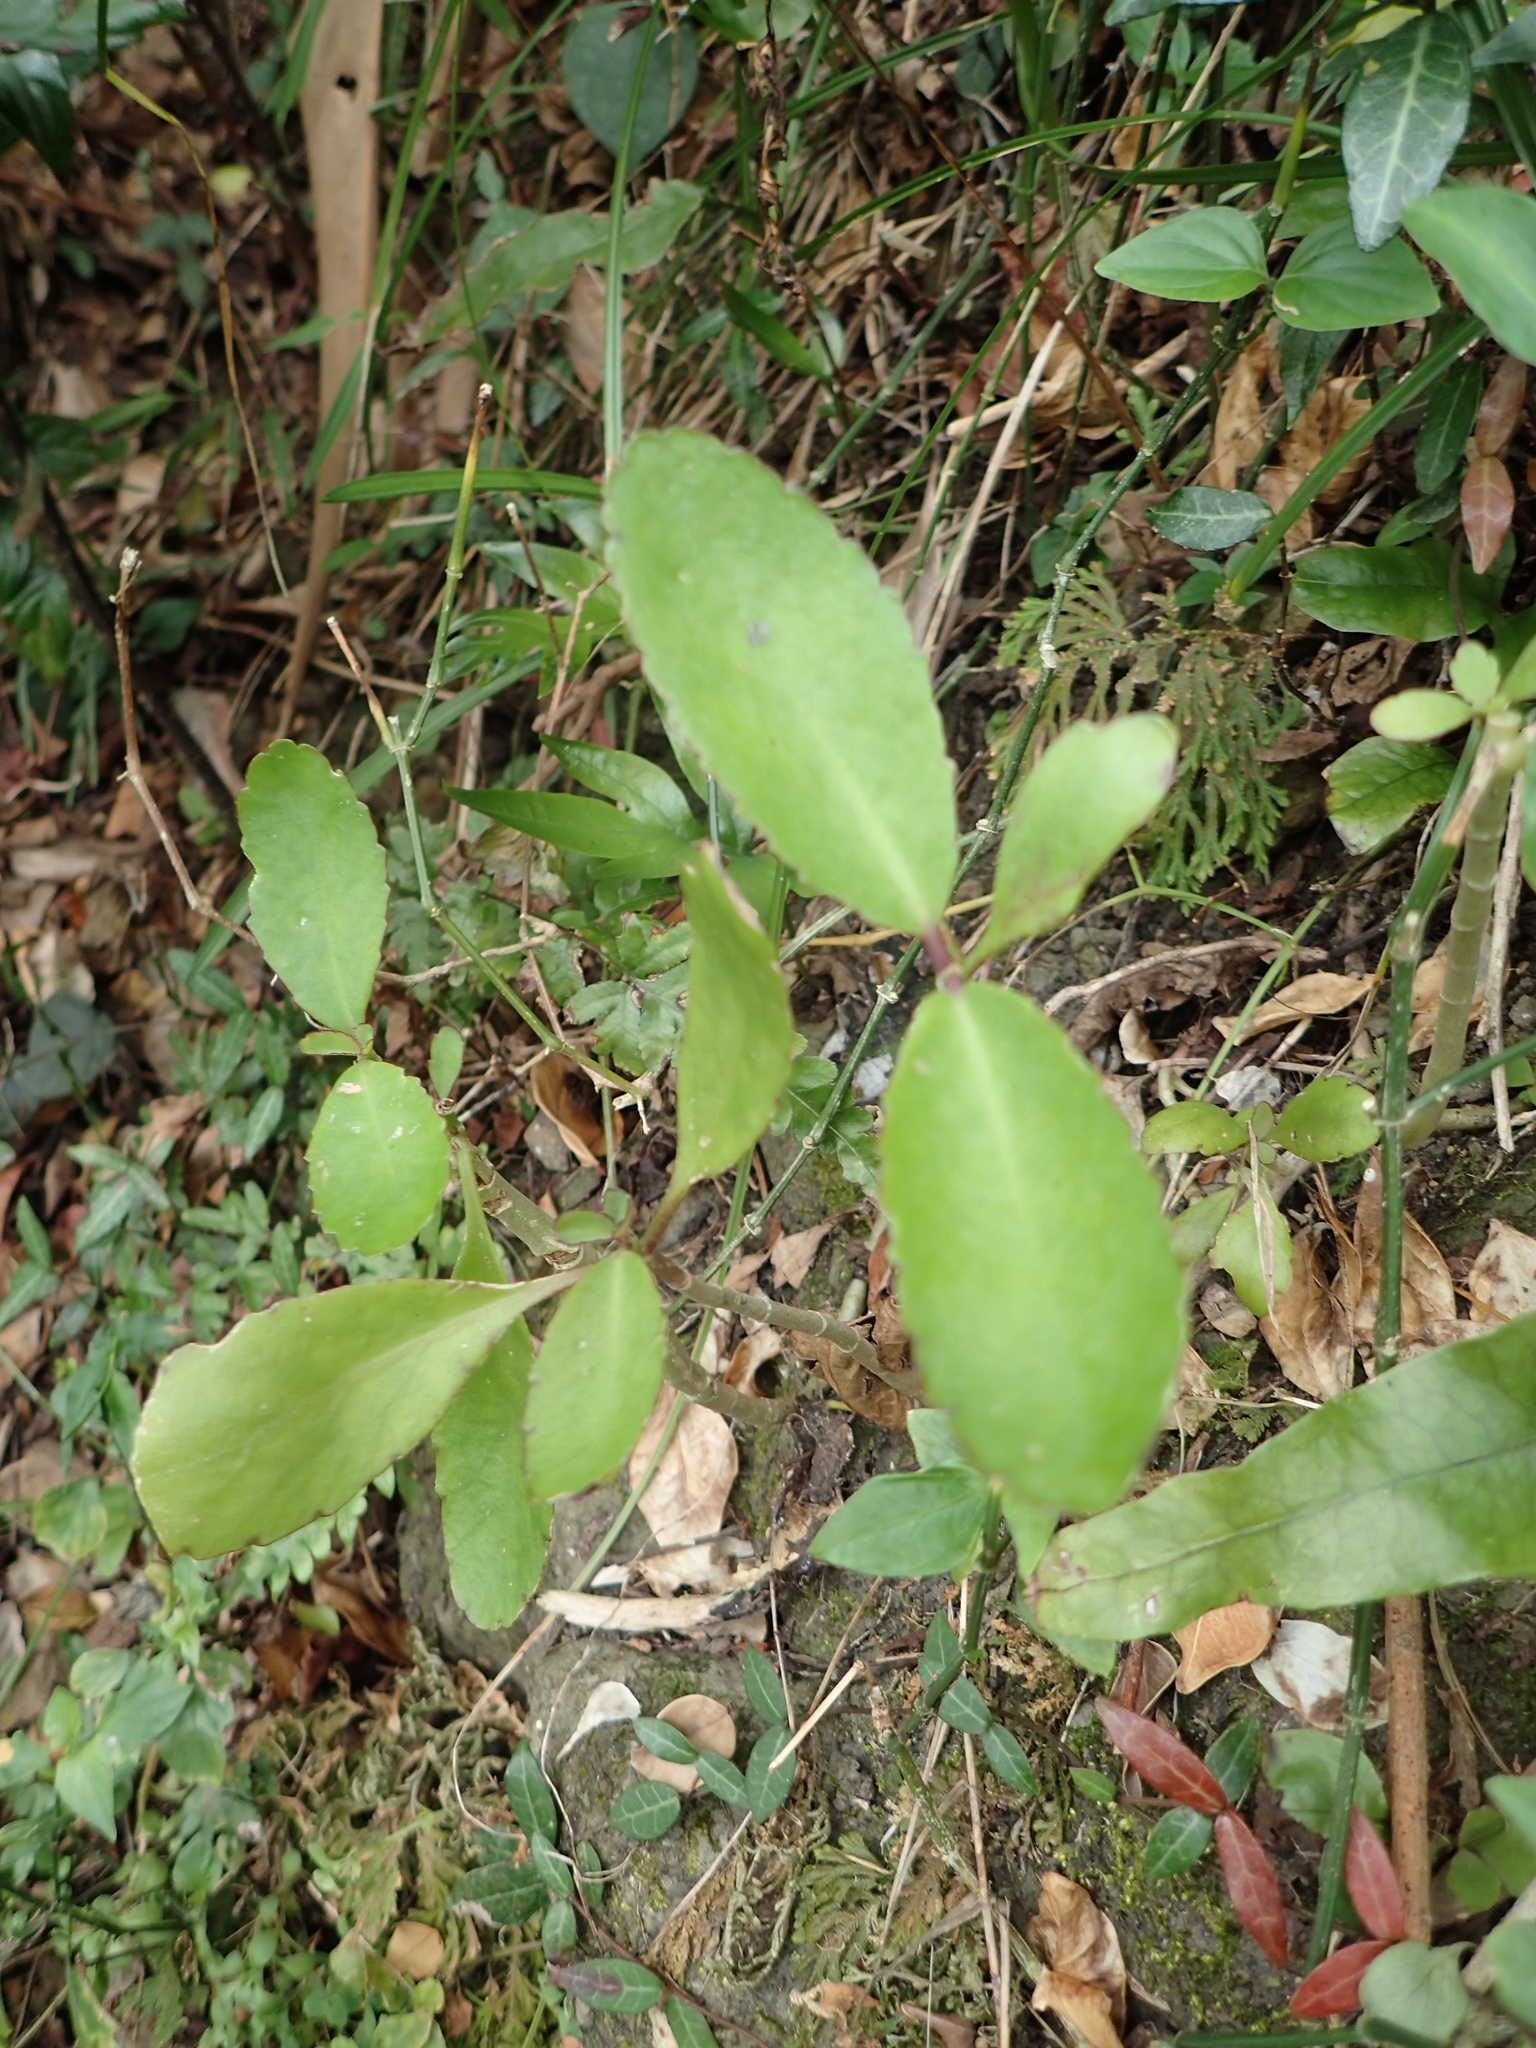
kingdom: Plantae
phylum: Tracheophyta
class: Magnoliopsida
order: Saxifragales
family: Crassulaceae
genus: Kalanchoe
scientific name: Kalanchoe pinnata
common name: Cathedral bells
